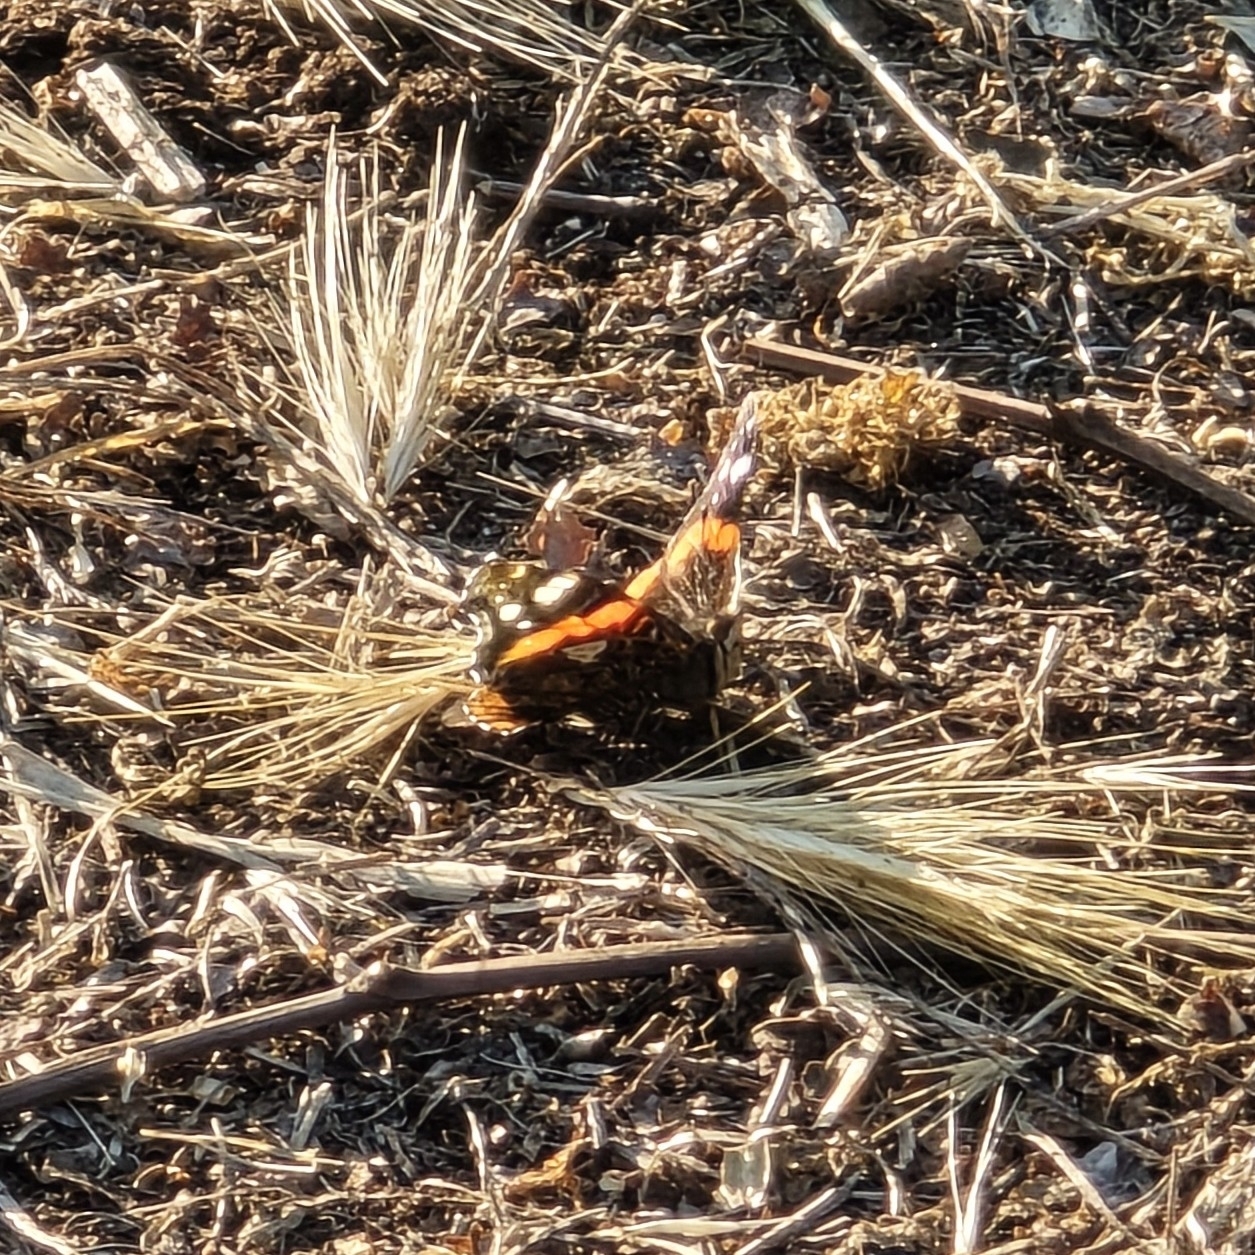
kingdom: Animalia
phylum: Arthropoda
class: Insecta
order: Lepidoptera
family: Nymphalidae
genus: Vanessa
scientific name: Vanessa atalanta
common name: Red admiral
